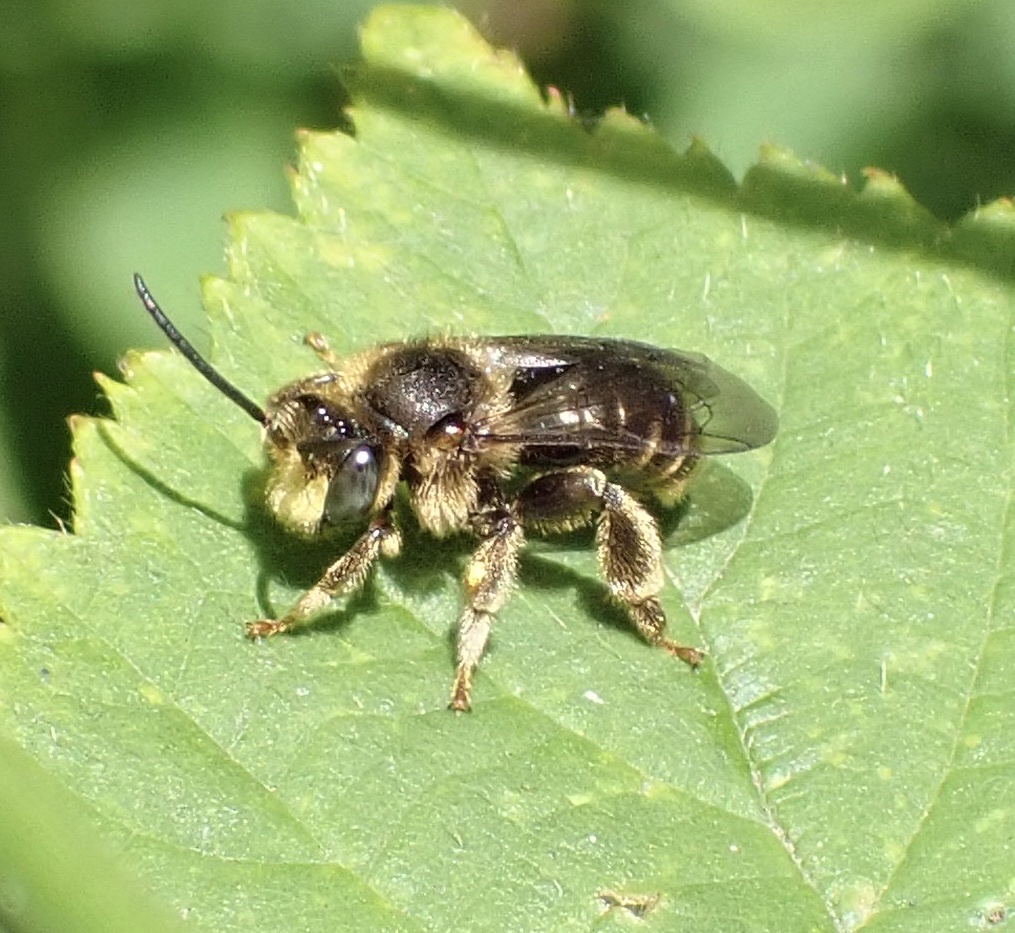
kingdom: Animalia
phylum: Arthropoda
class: Insecta
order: Hymenoptera
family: Melittidae
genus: Macropis
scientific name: Macropis europaea
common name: Yellow loosestrife bee
